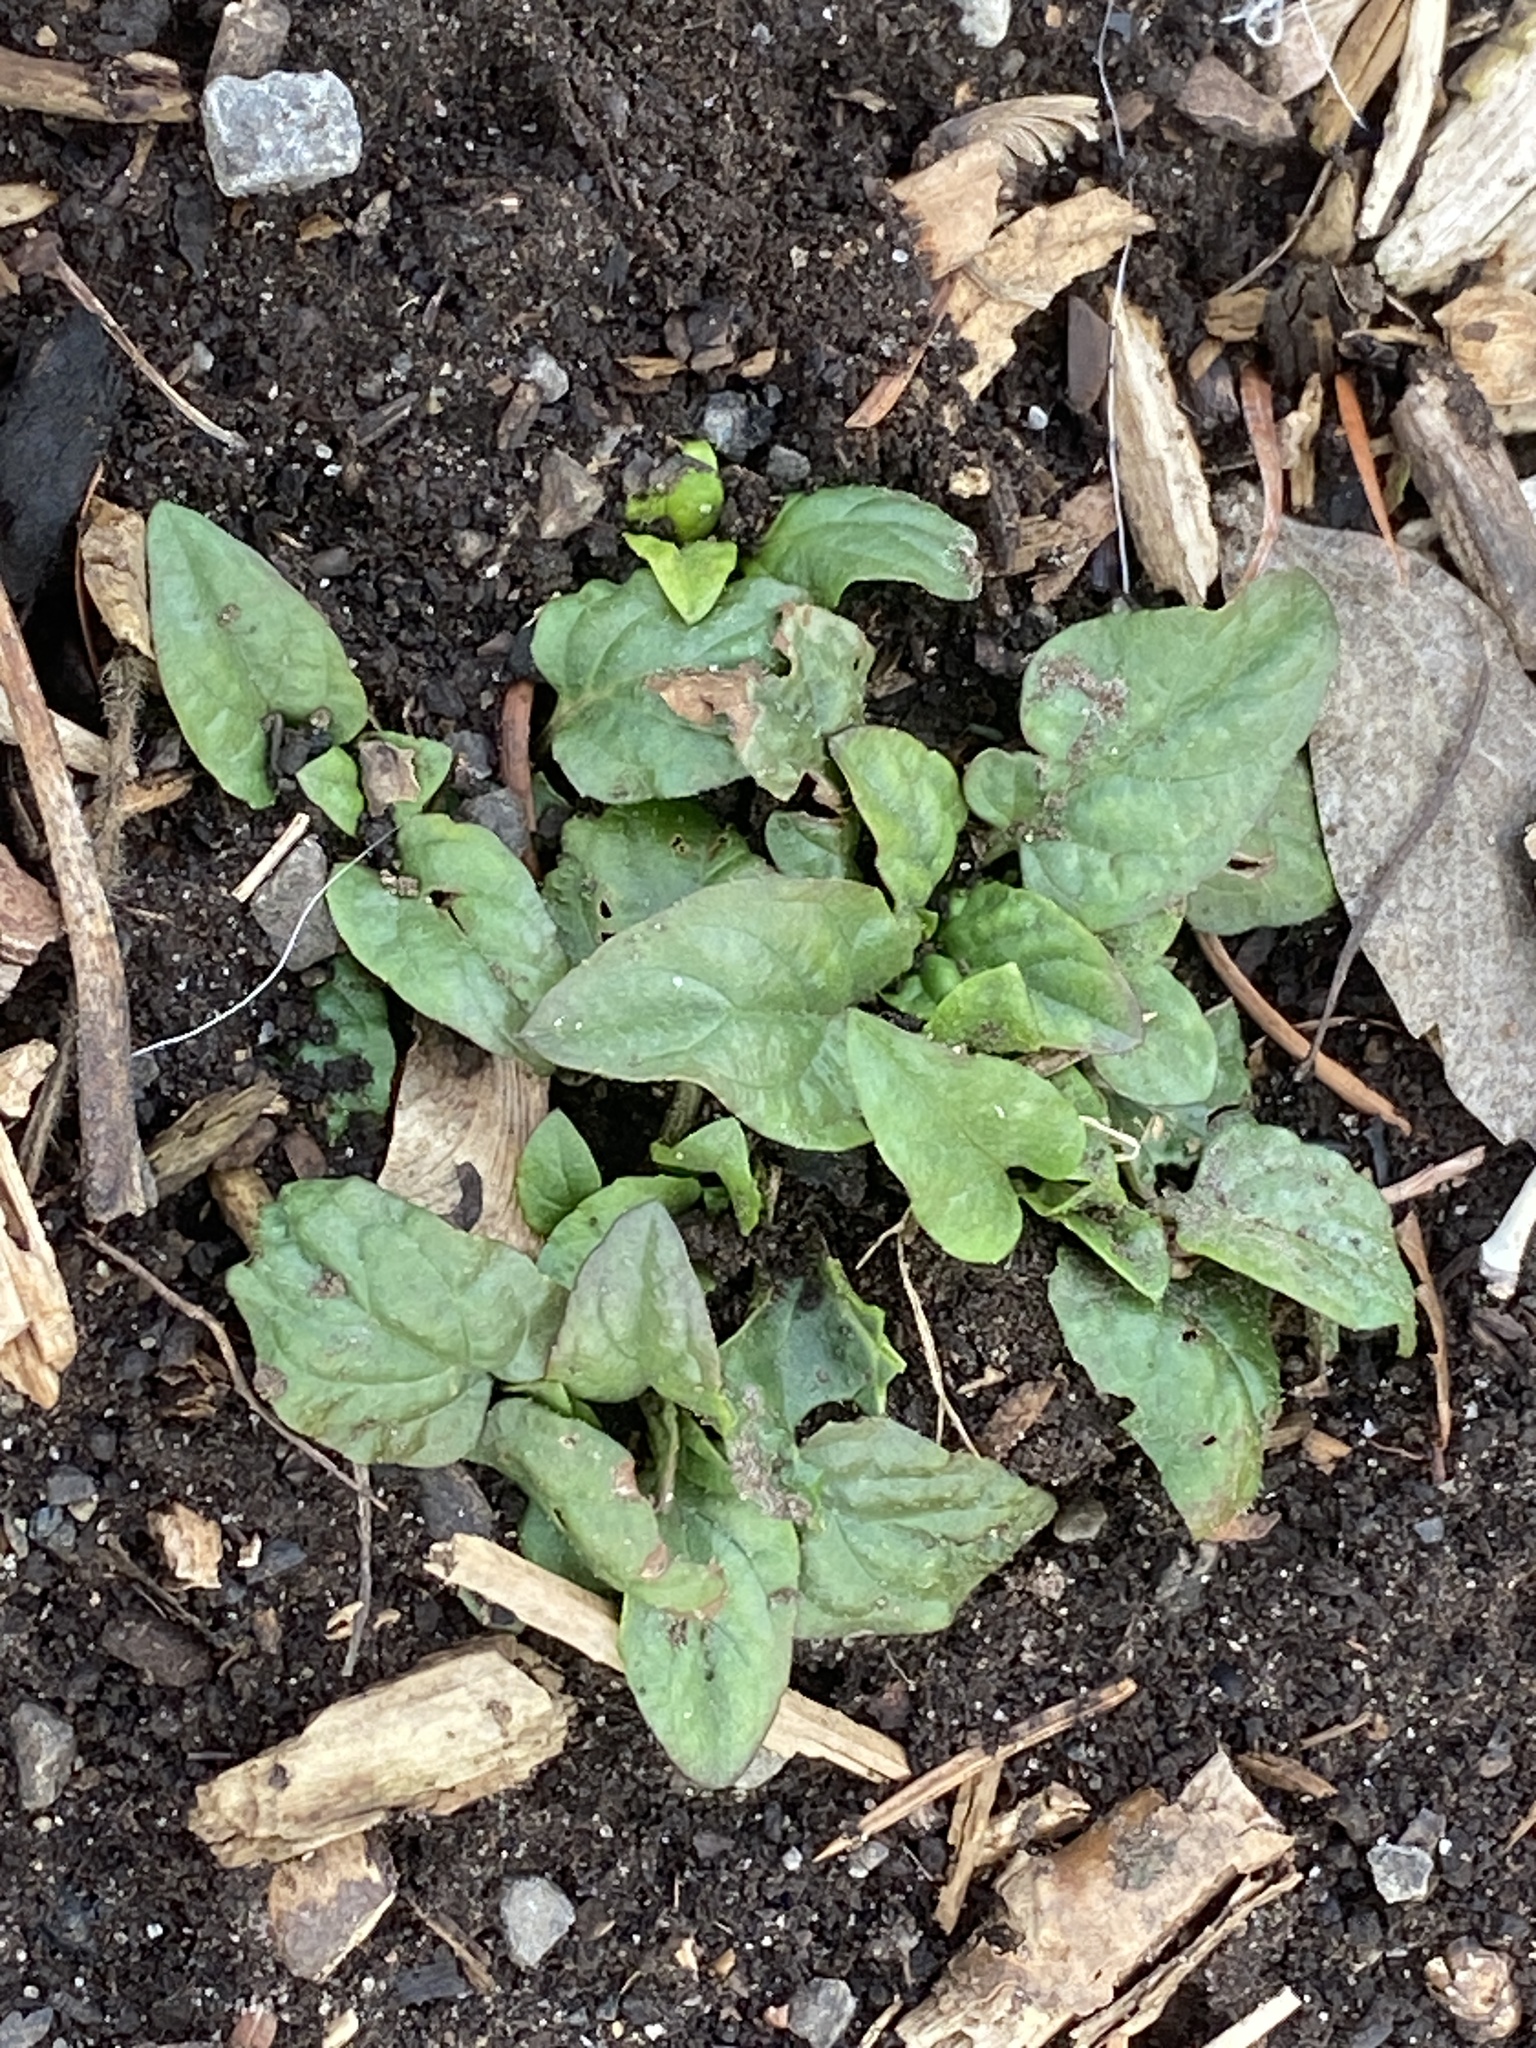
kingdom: Plantae
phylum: Tracheophyta
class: Magnoliopsida
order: Lamiales
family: Lamiaceae
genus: Prunella
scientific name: Prunella vulgaris
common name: Heal-all
